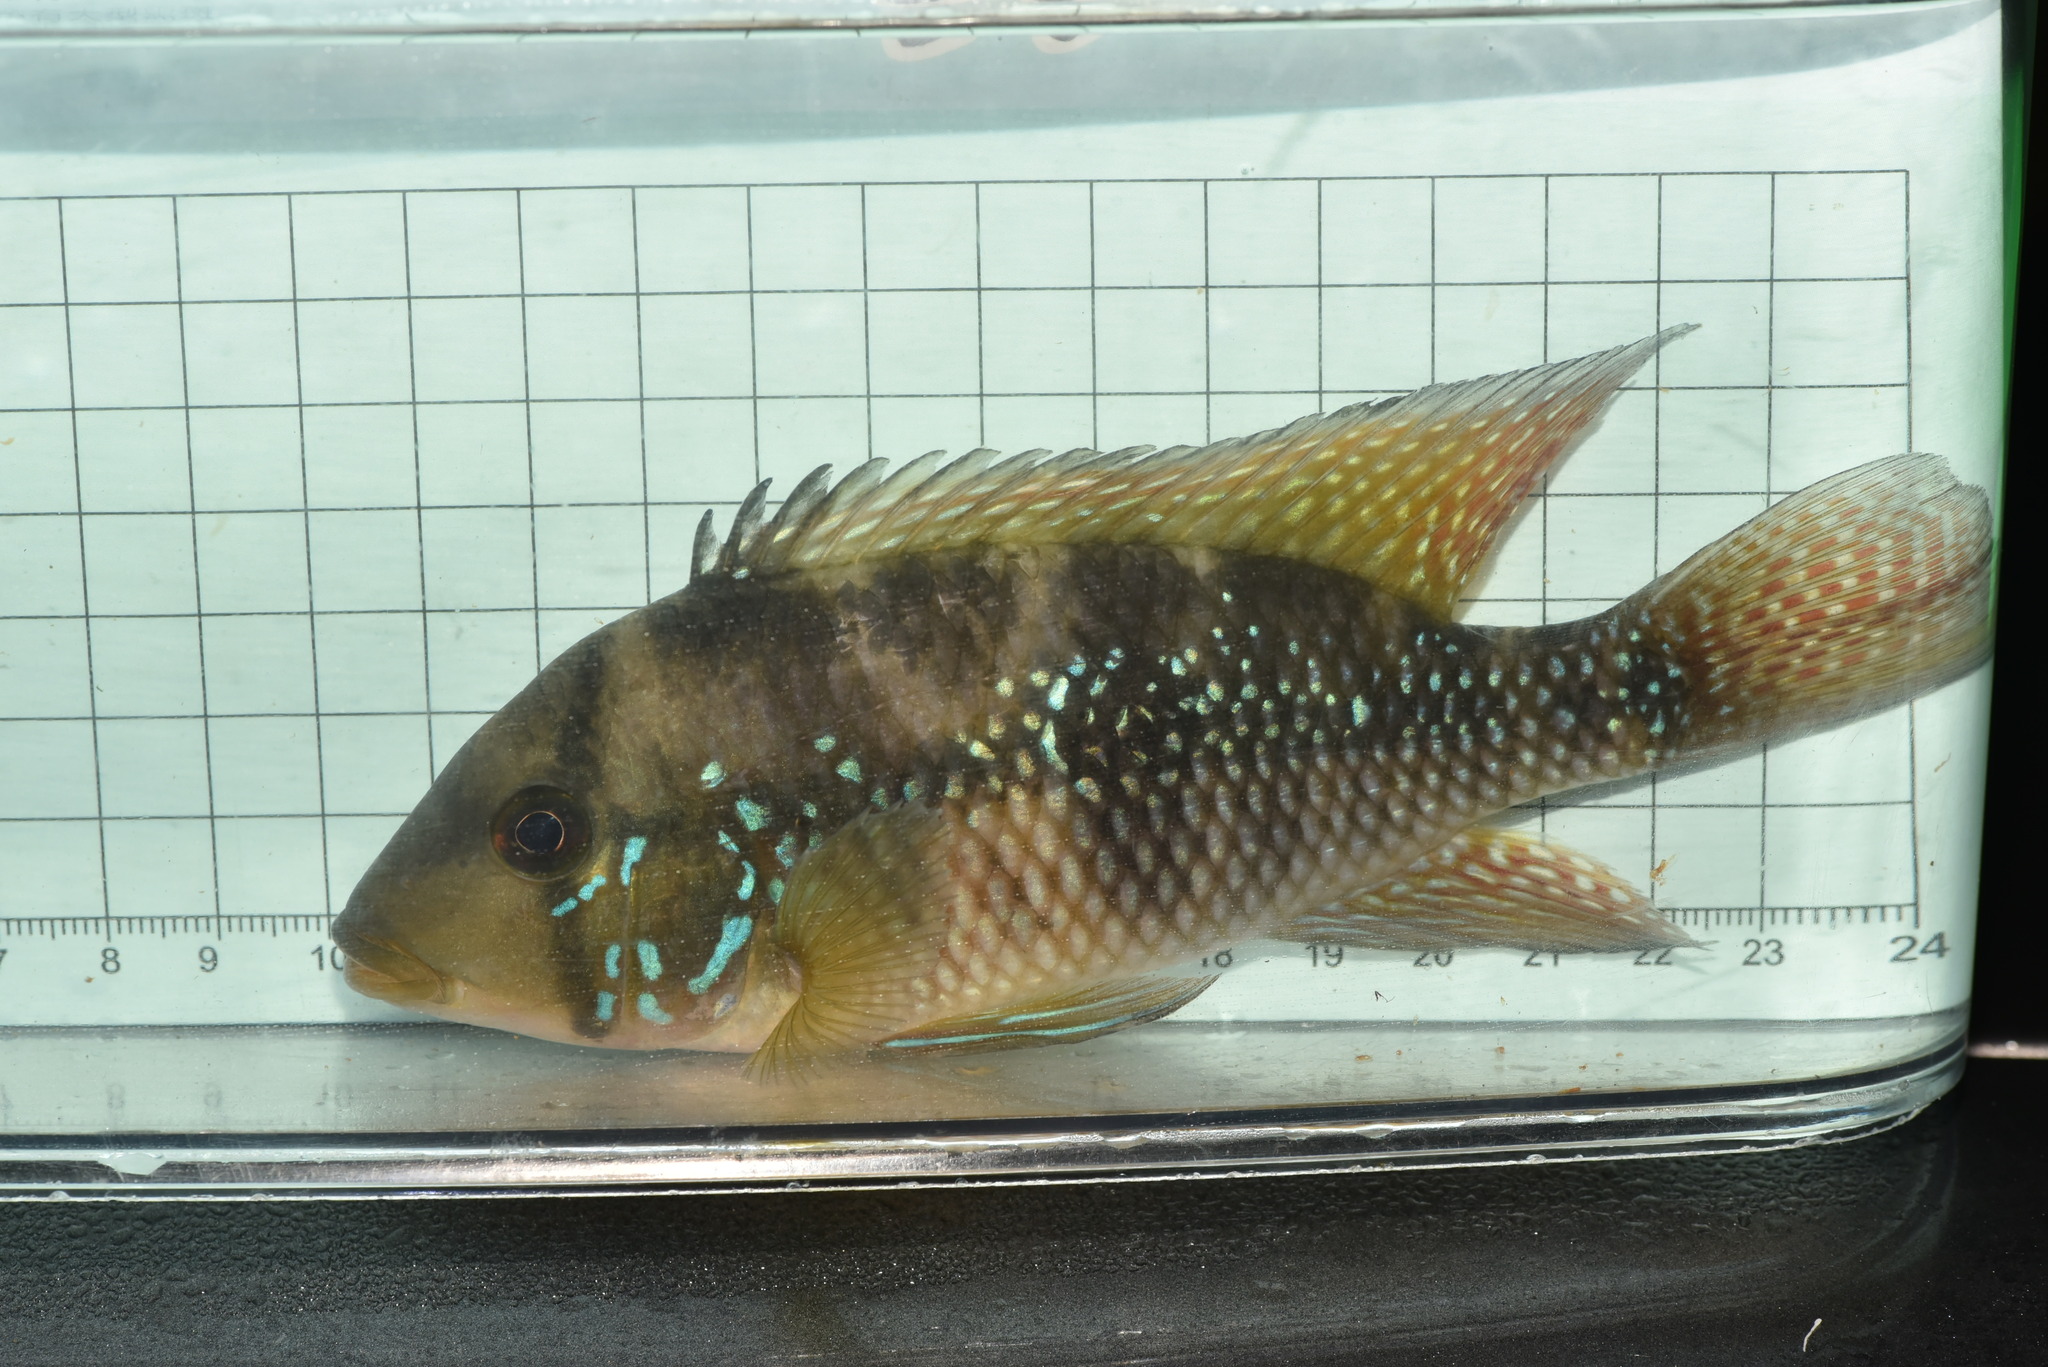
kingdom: Animalia
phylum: Chordata
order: Perciformes
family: Cichlidae
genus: Geophagus
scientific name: Geophagus brasiliensis
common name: Braziliensis
